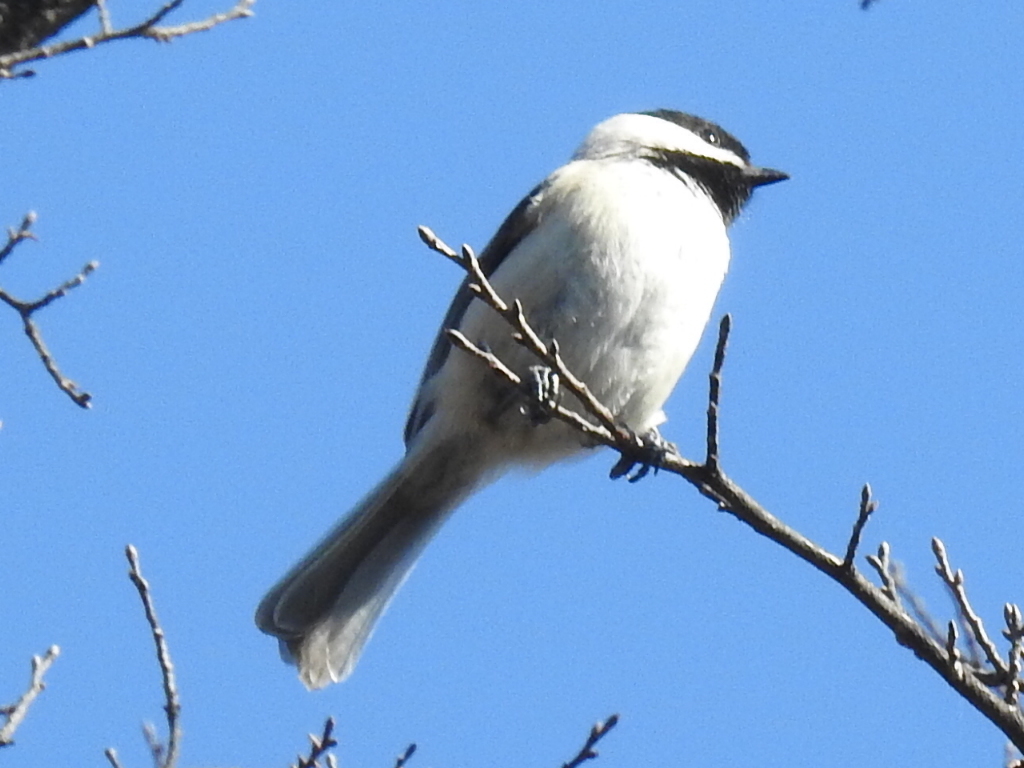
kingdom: Animalia
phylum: Chordata
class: Aves
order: Passeriformes
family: Paridae
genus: Poecile
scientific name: Poecile carolinensis
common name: Carolina chickadee
